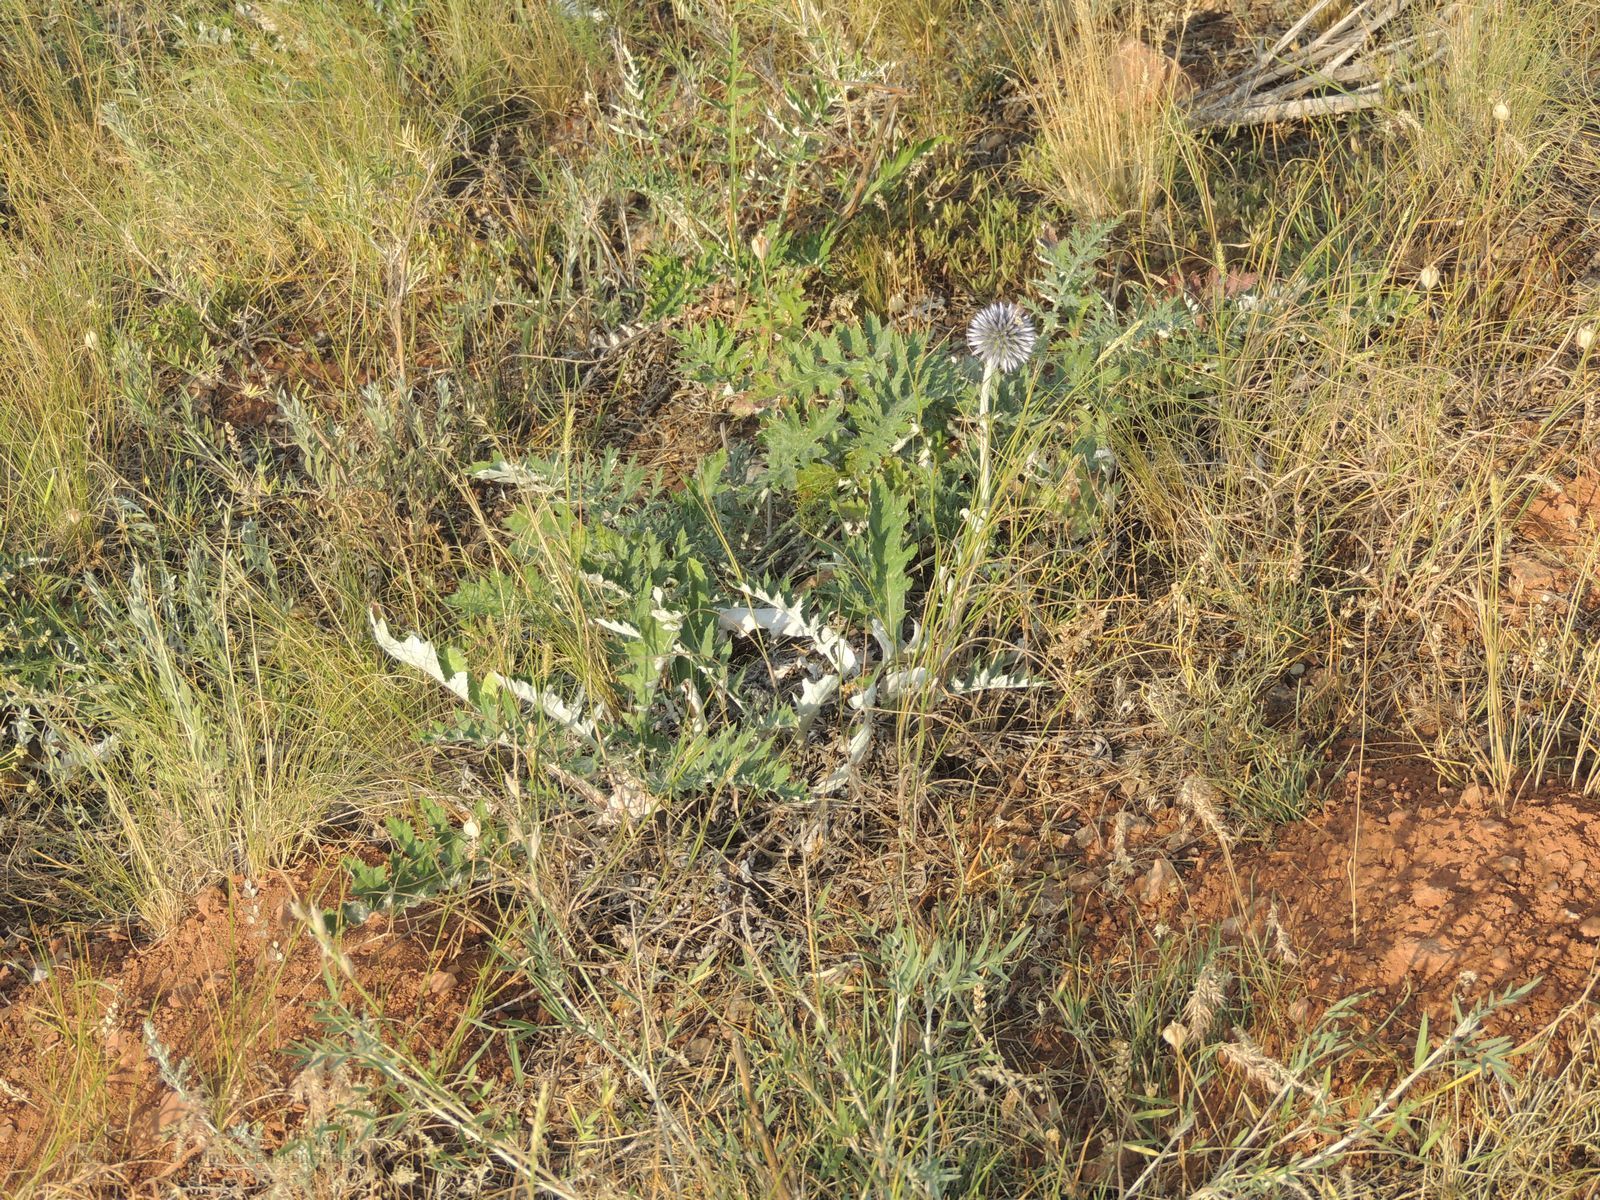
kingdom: Plantae
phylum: Tracheophyta
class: Magnoliopsida
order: Asterales
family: Asteraceae
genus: Echinops
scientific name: Echinops ritro
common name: Globe thistle
